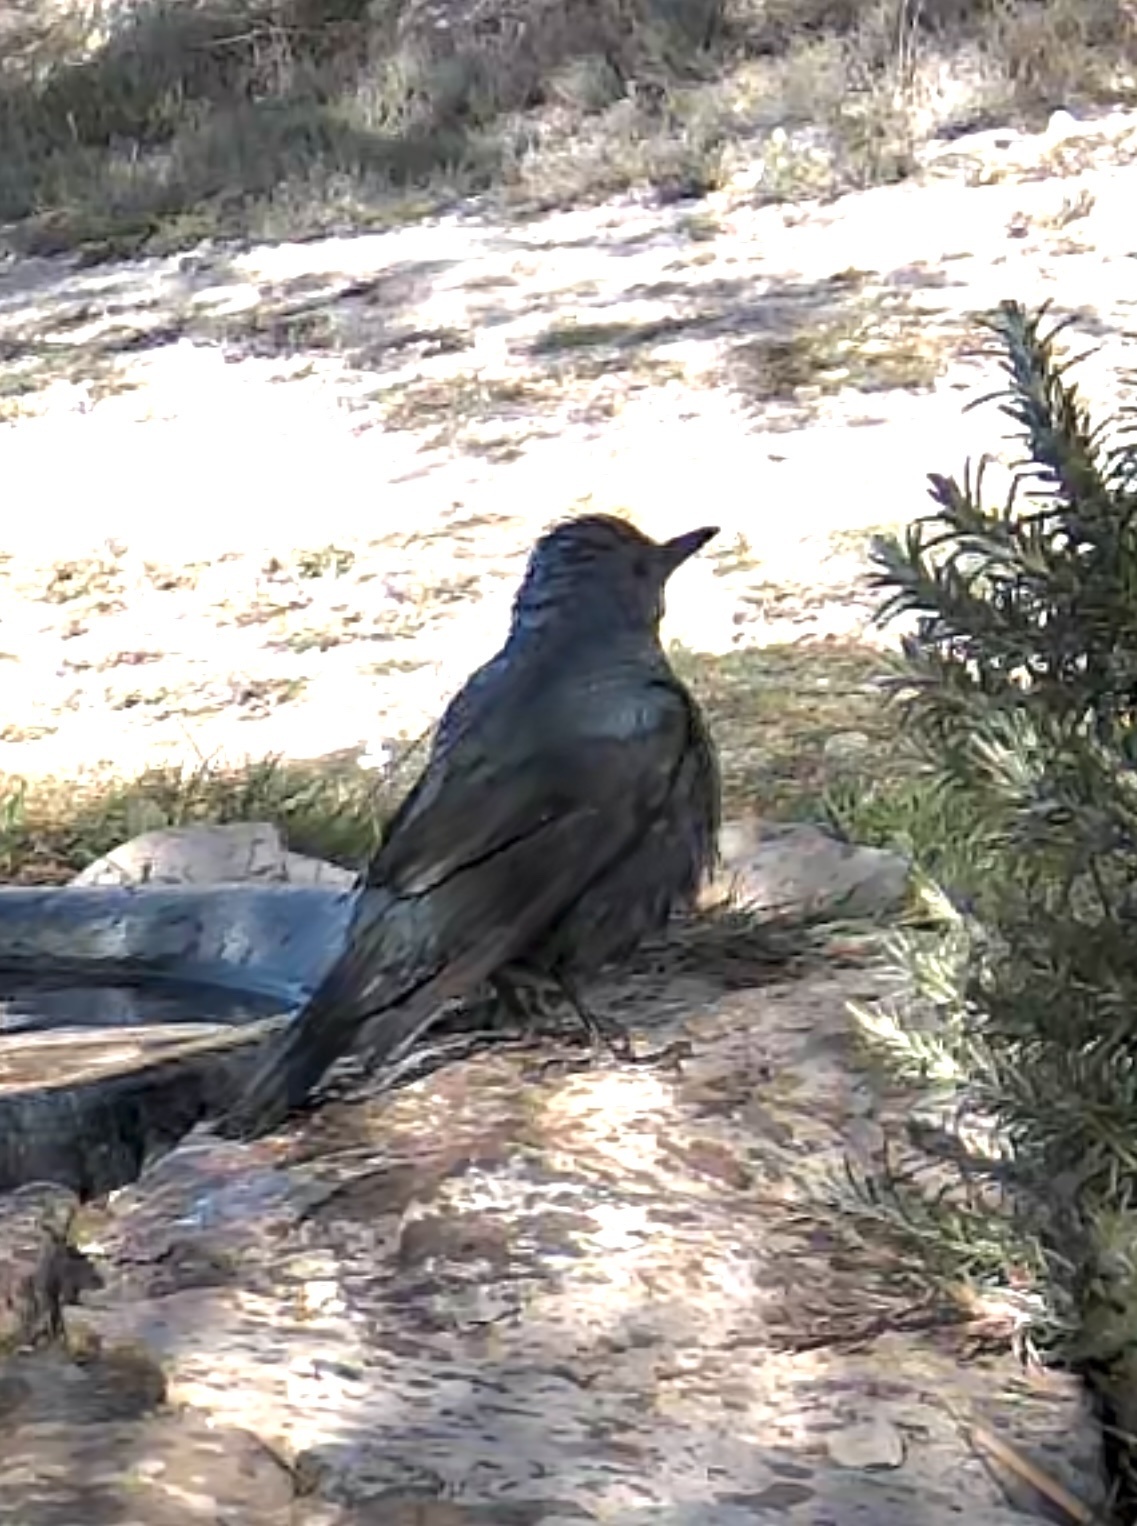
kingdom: Animalia
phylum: Chordata
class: Aves
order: Passeriformes
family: Muscicapidae
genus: Monticola
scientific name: Monticola solitarius
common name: Blue rock thrush
